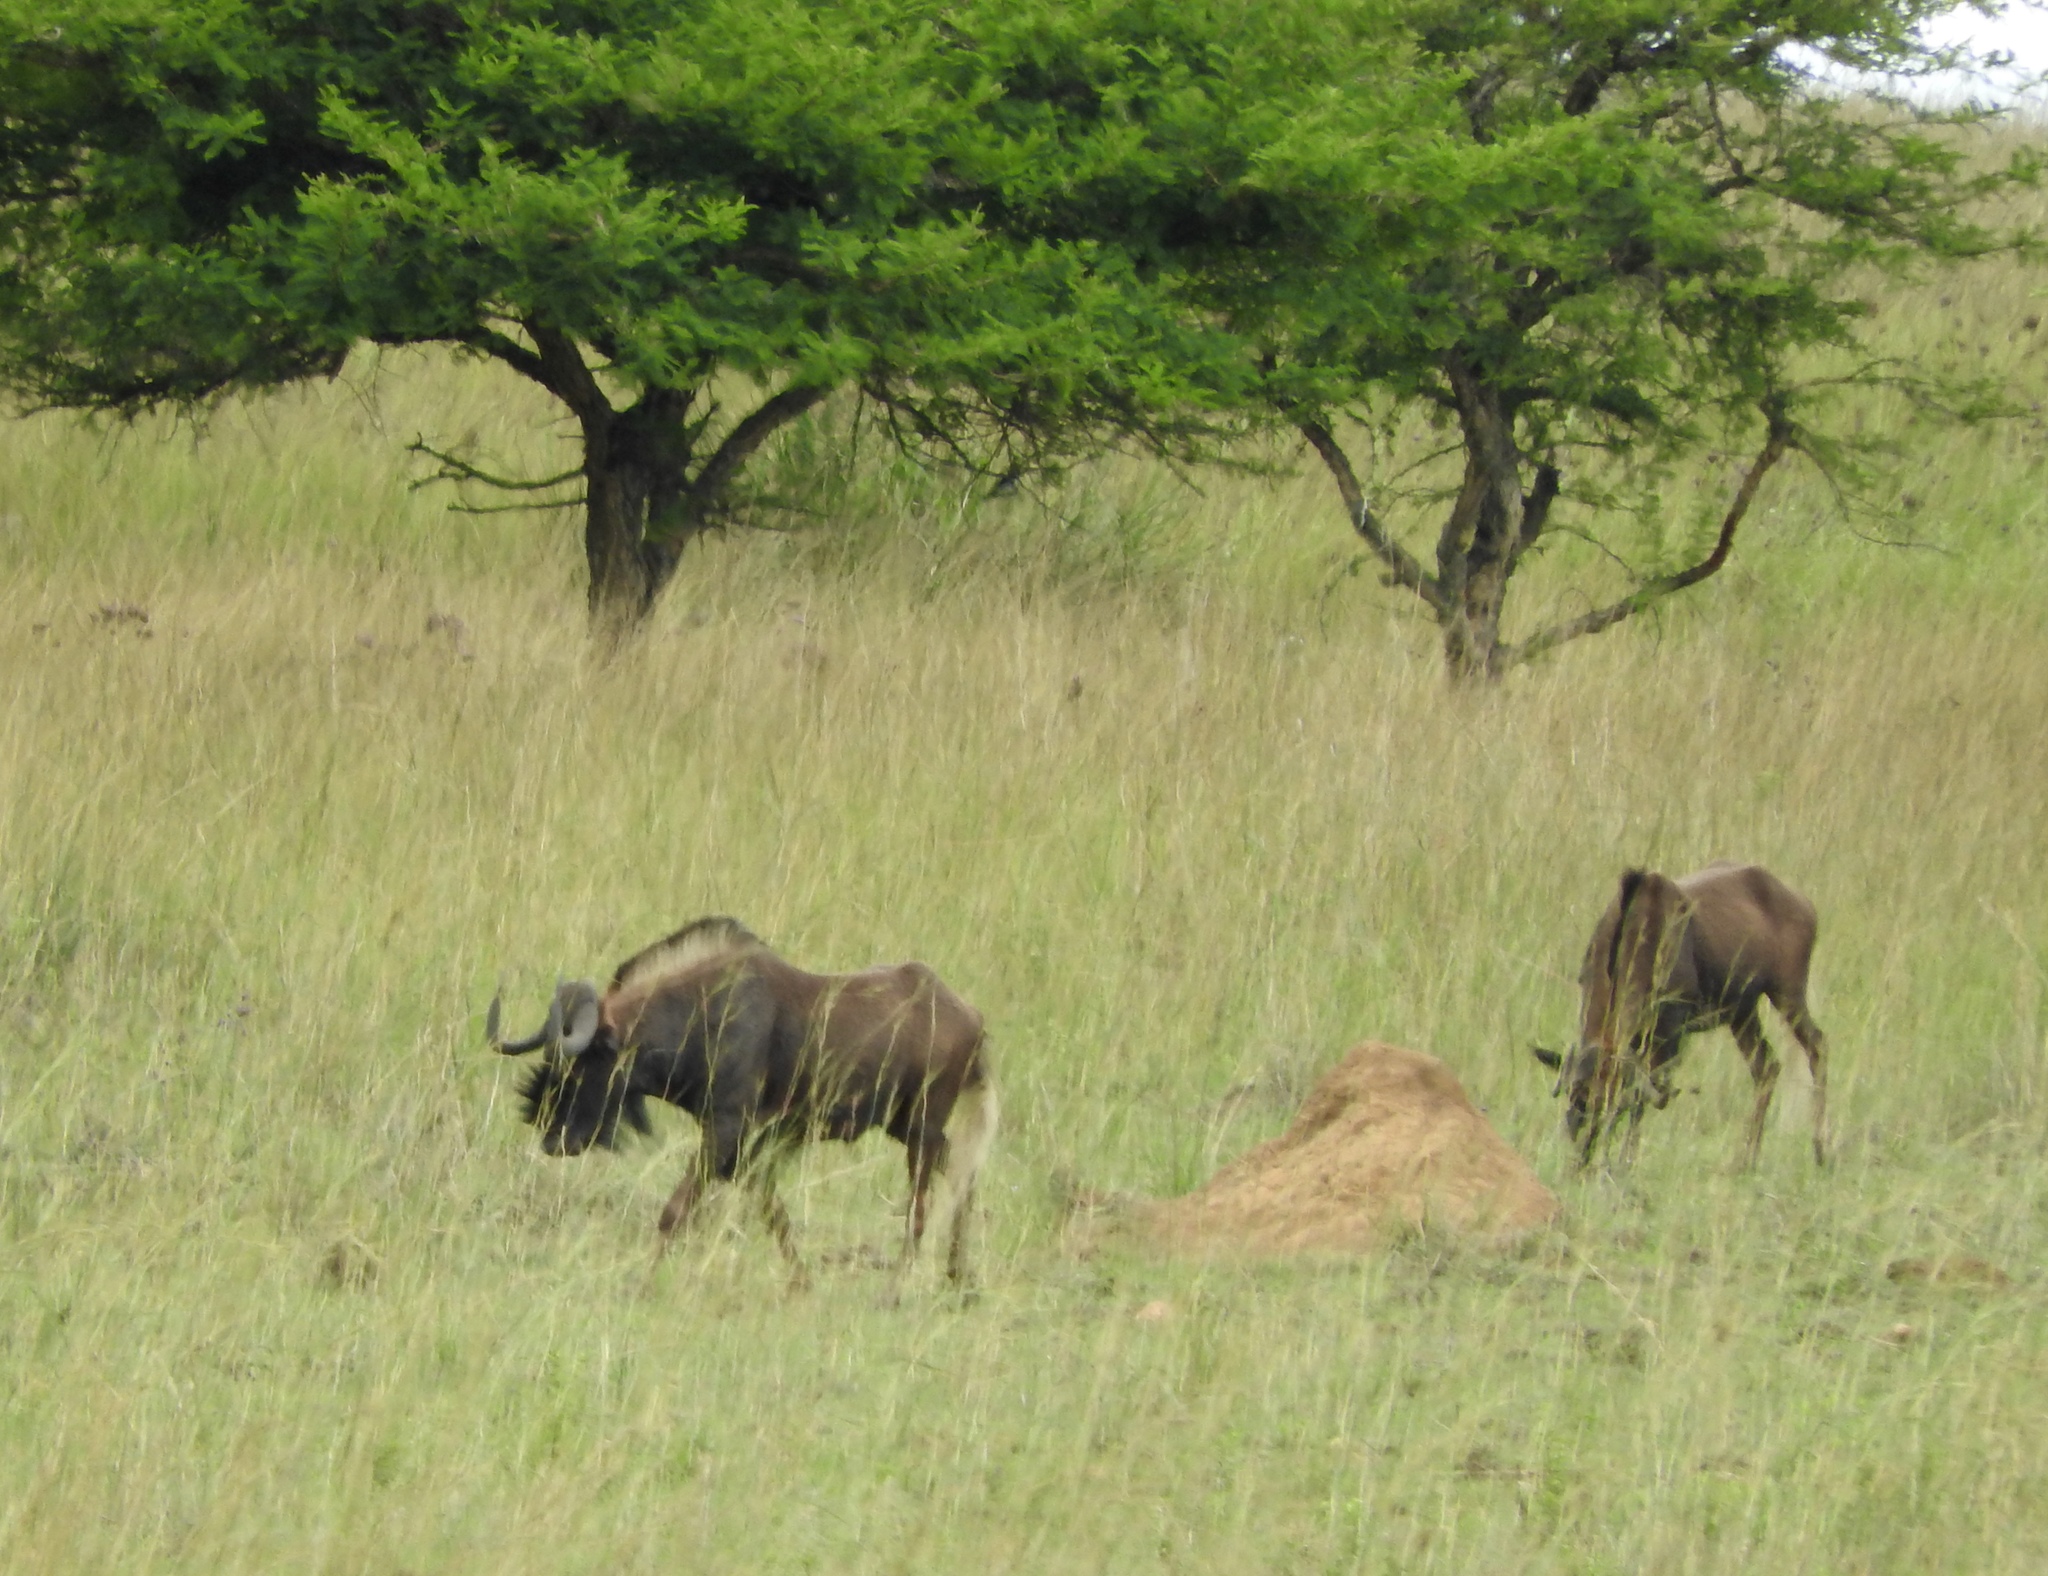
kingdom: Animalia
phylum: Chordata
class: Mammalia
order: Artiodactyla
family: Bovidae
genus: Connochaetes
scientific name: Connochaetes gnou
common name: Black wildebeest
